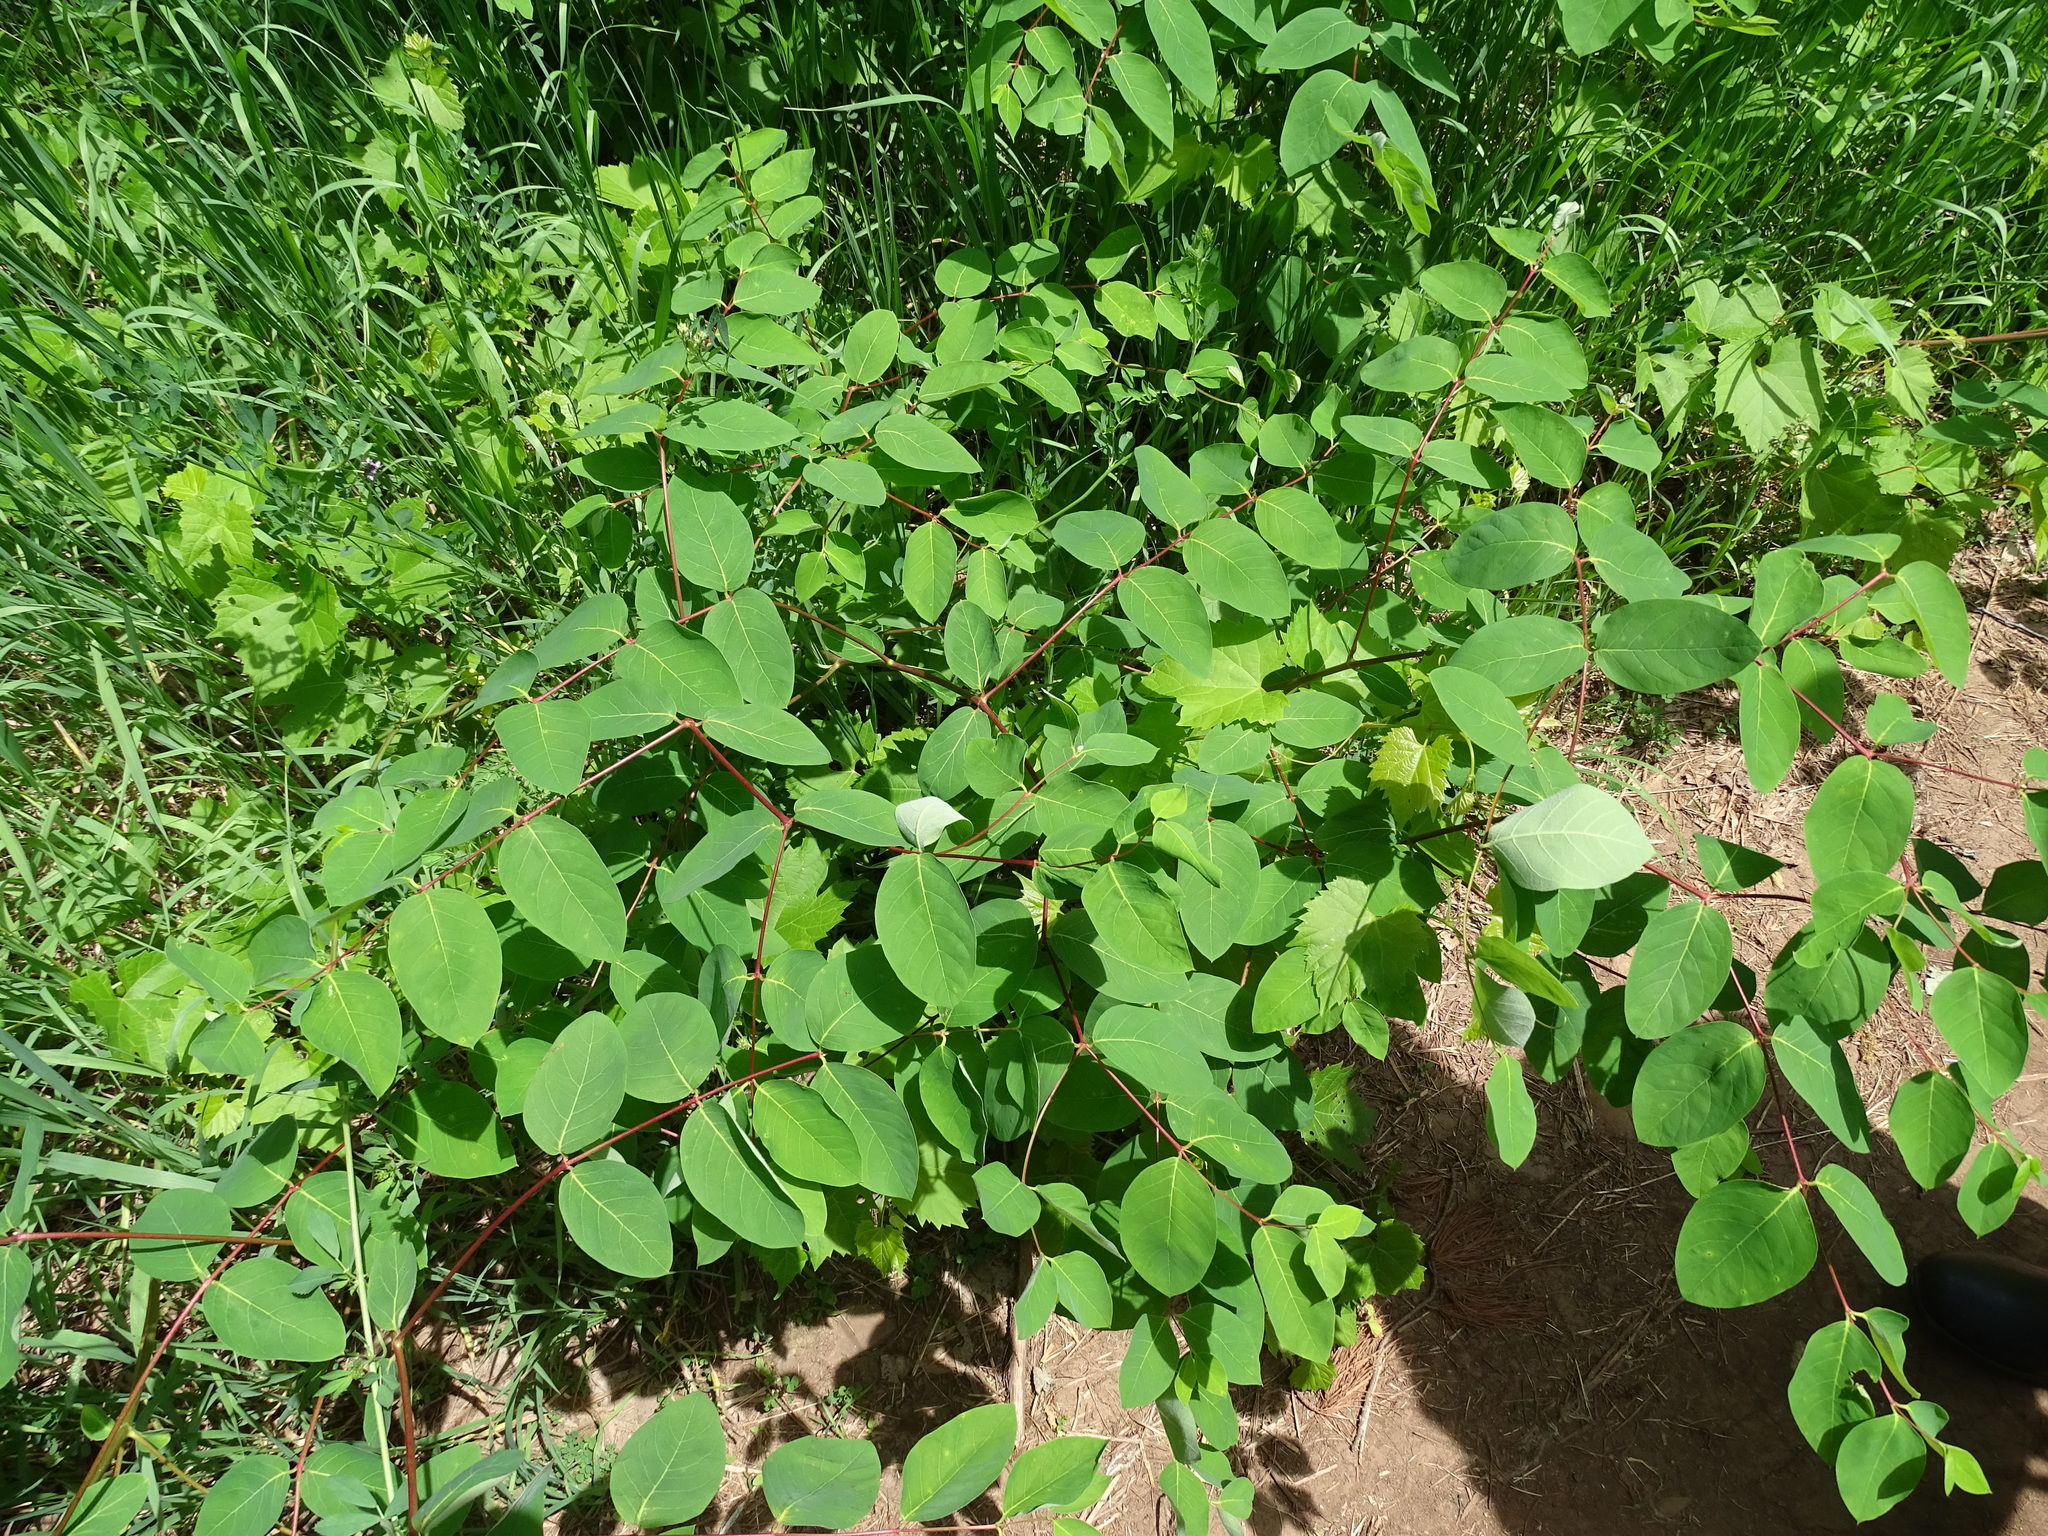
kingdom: Plantae
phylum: Tracheophyta
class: Magnoliopsida
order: Gentianales
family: Apocynaceae
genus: Apocynum
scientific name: Apocynum androsaemifolium
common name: Spreading dogbane
